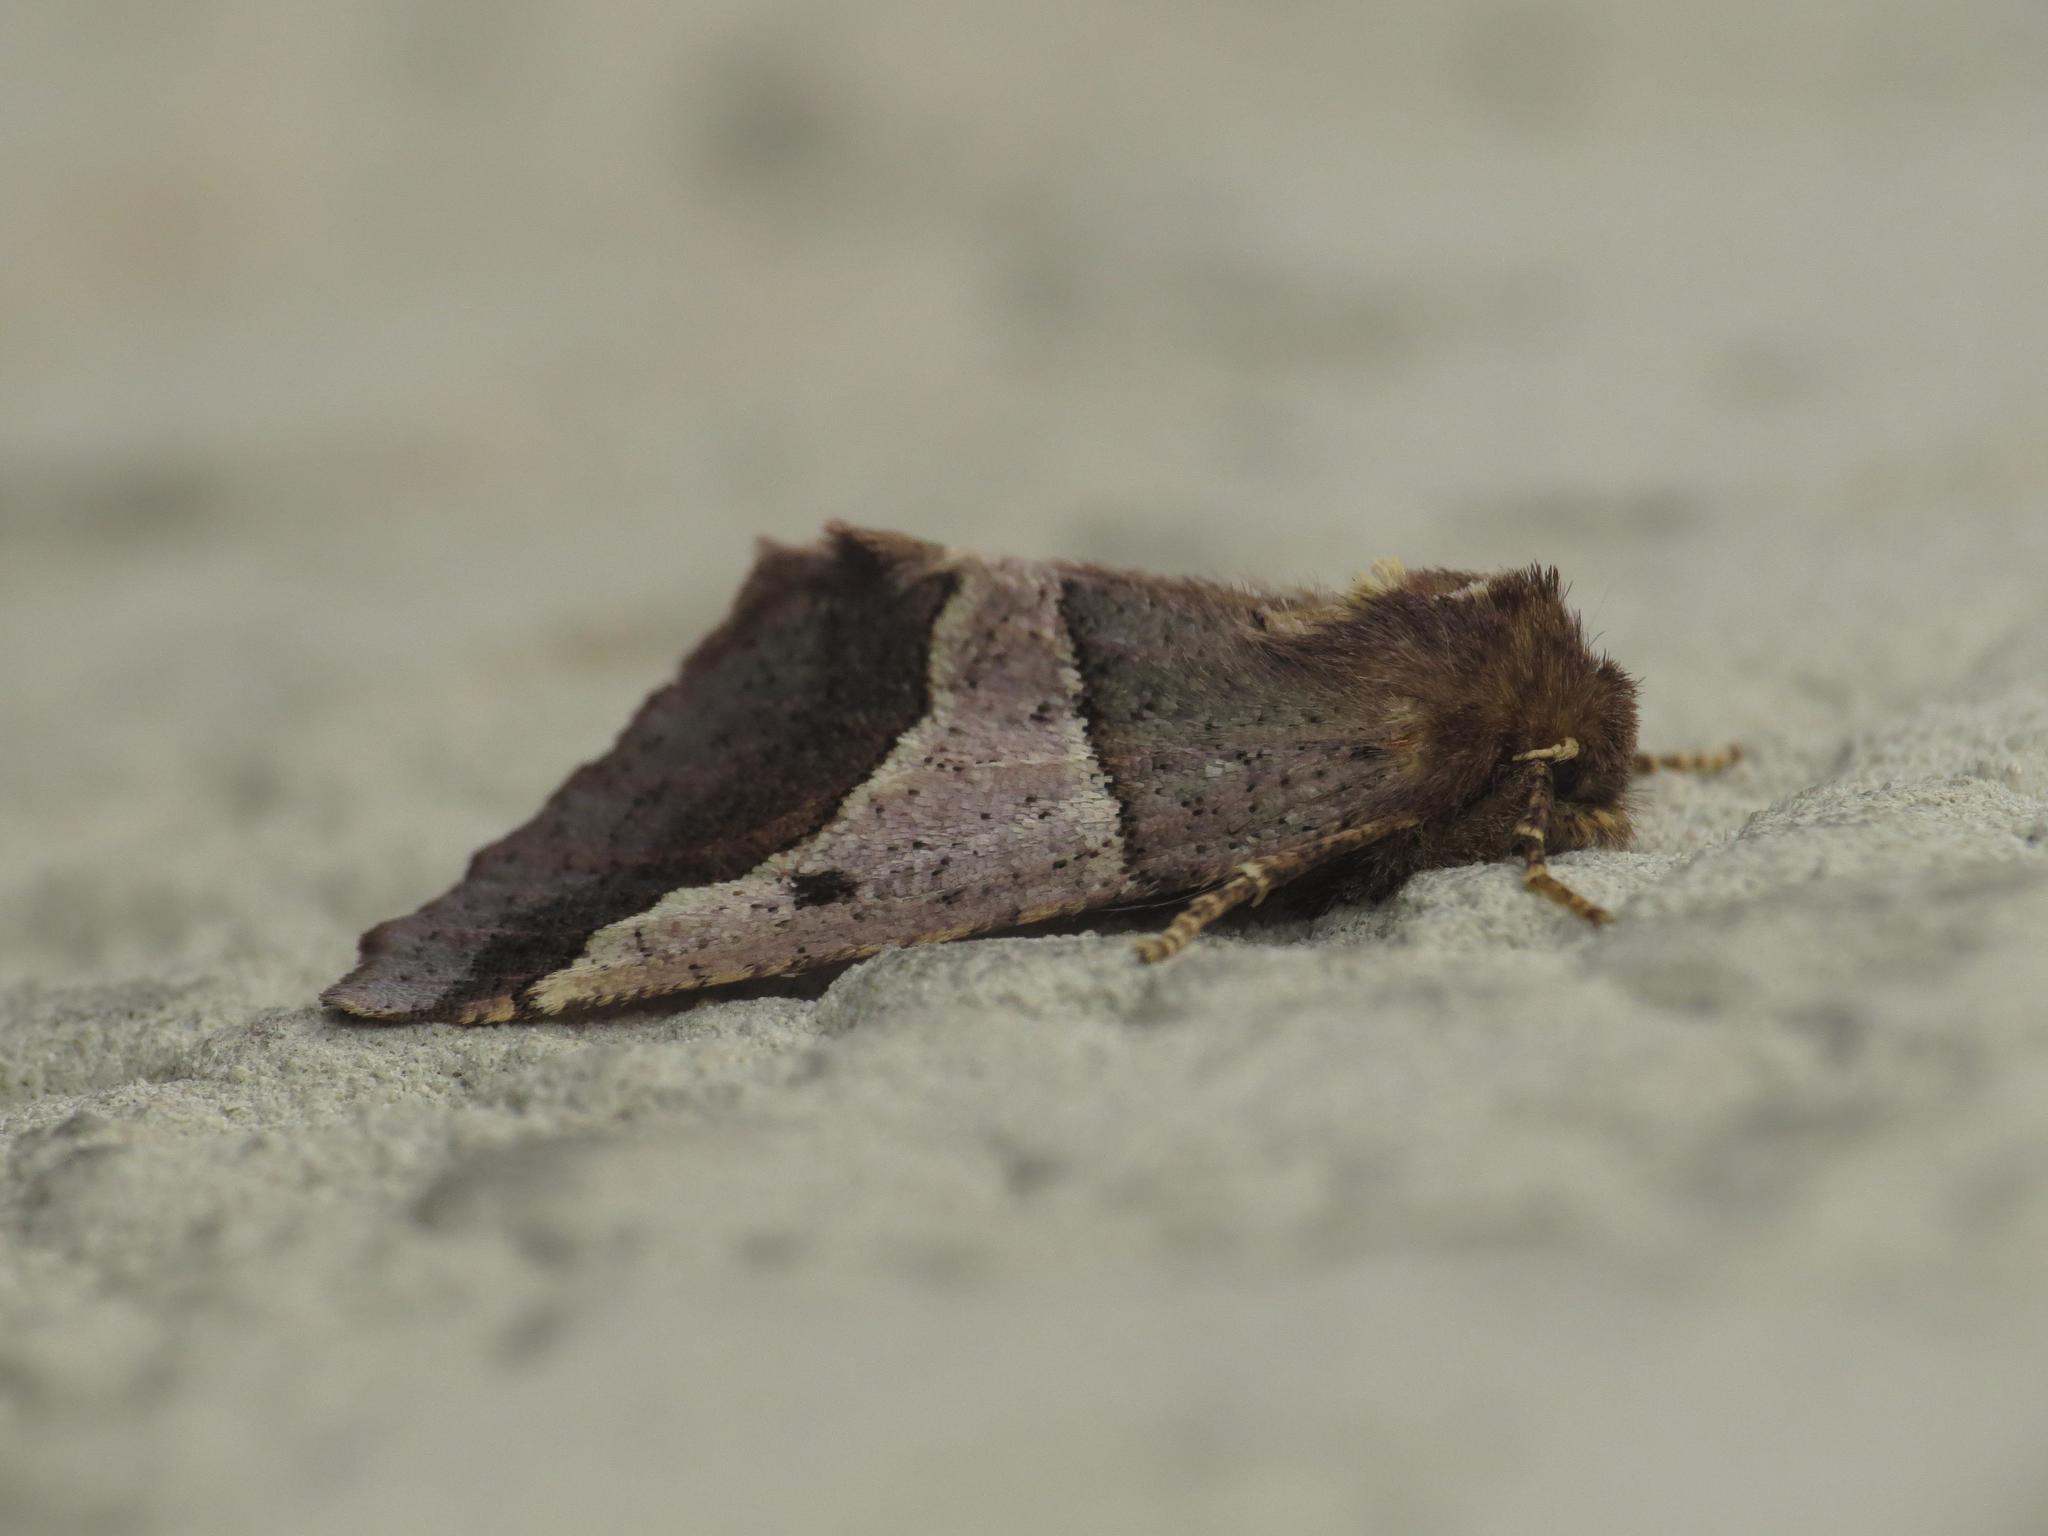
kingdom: Animalia
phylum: Arthropoda
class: Insecta
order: Lepidoptera
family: Geometridae
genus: Wilemania
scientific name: Wilemania nitobei
